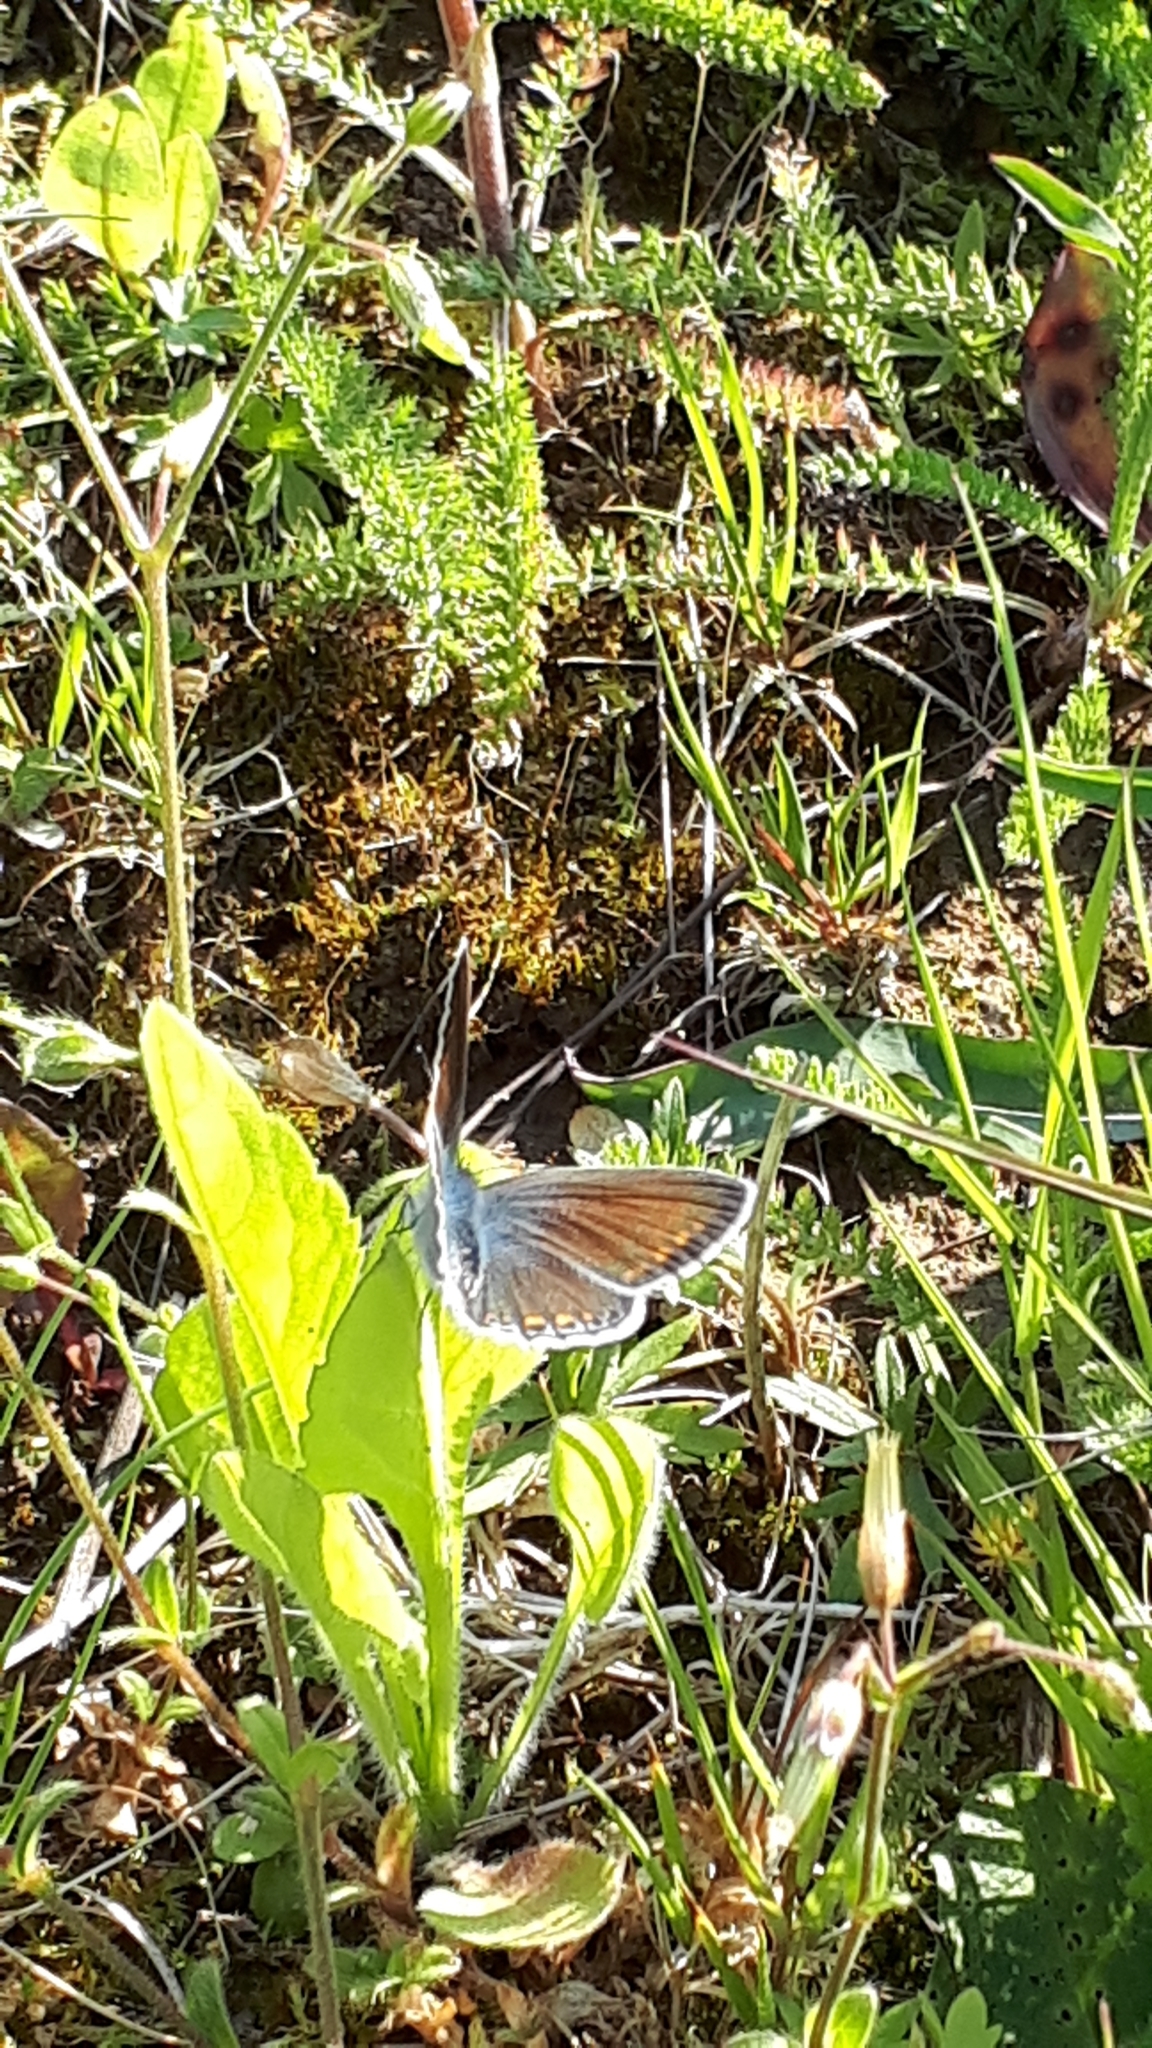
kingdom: Animalia
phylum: Arthropoda
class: Insecta
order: Lepidoptera
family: Lycaenidae
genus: Polyommatus
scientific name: Polyommatus icarus
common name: Common blue
